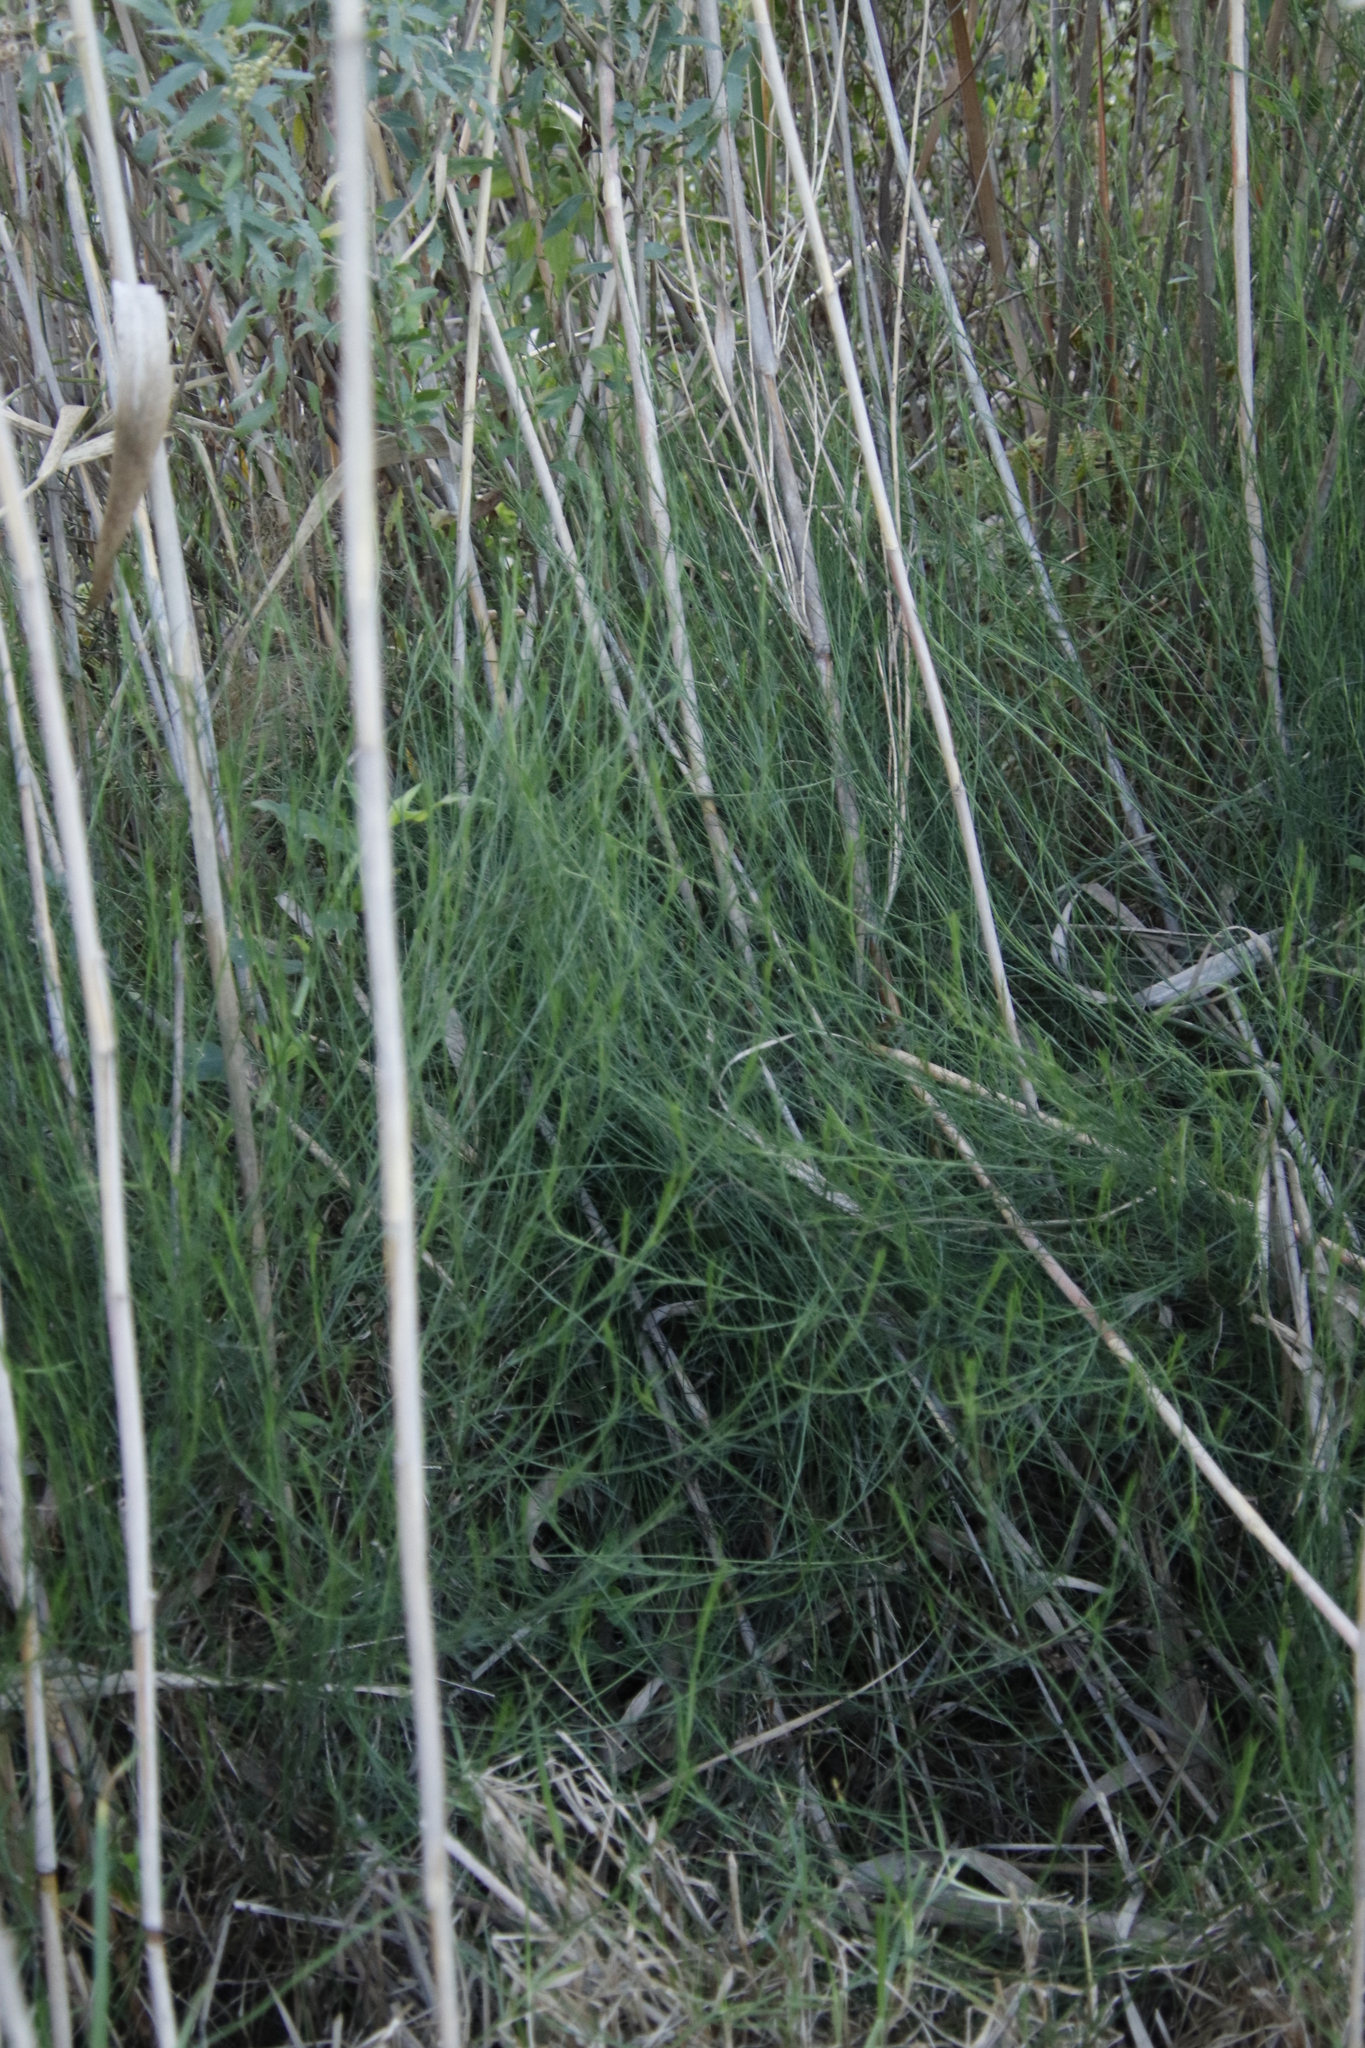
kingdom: Plantae
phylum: Tracheophyta
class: Magnoliopsida
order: Fabales
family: Fabaceae
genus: Psoralea
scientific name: Psoralea fascicularis
